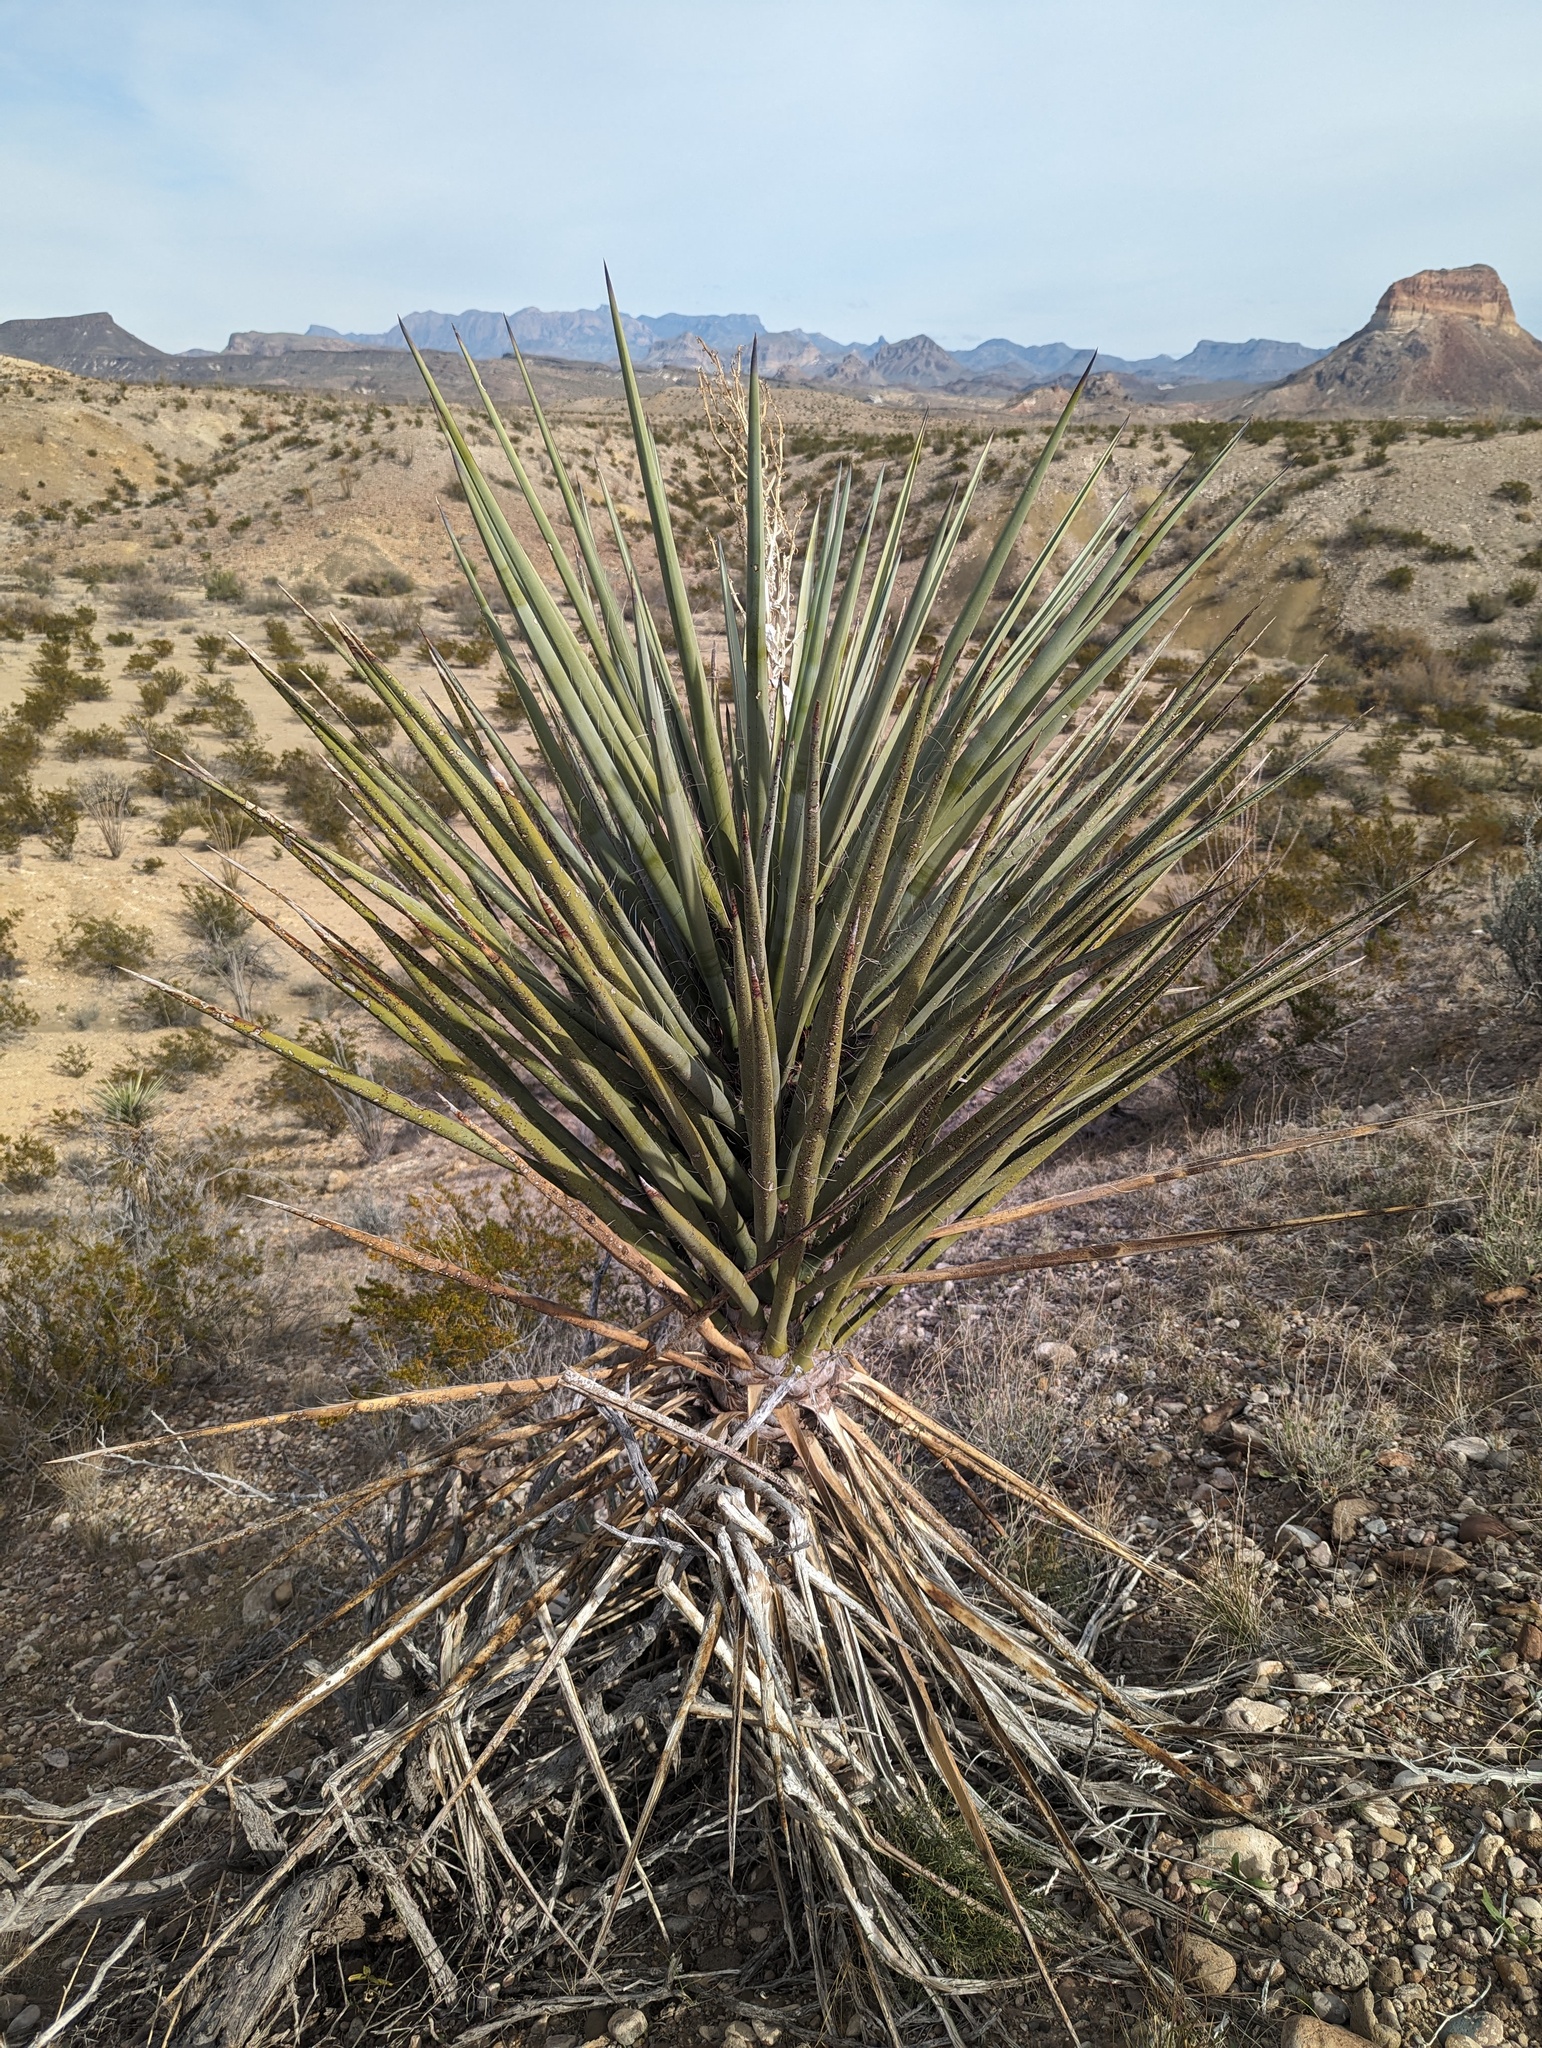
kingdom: Plantae
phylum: Tracheophyta
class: Liliopsida
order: Asparagales
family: Asparagaceae
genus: Yucca
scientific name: Yucca treculiana
